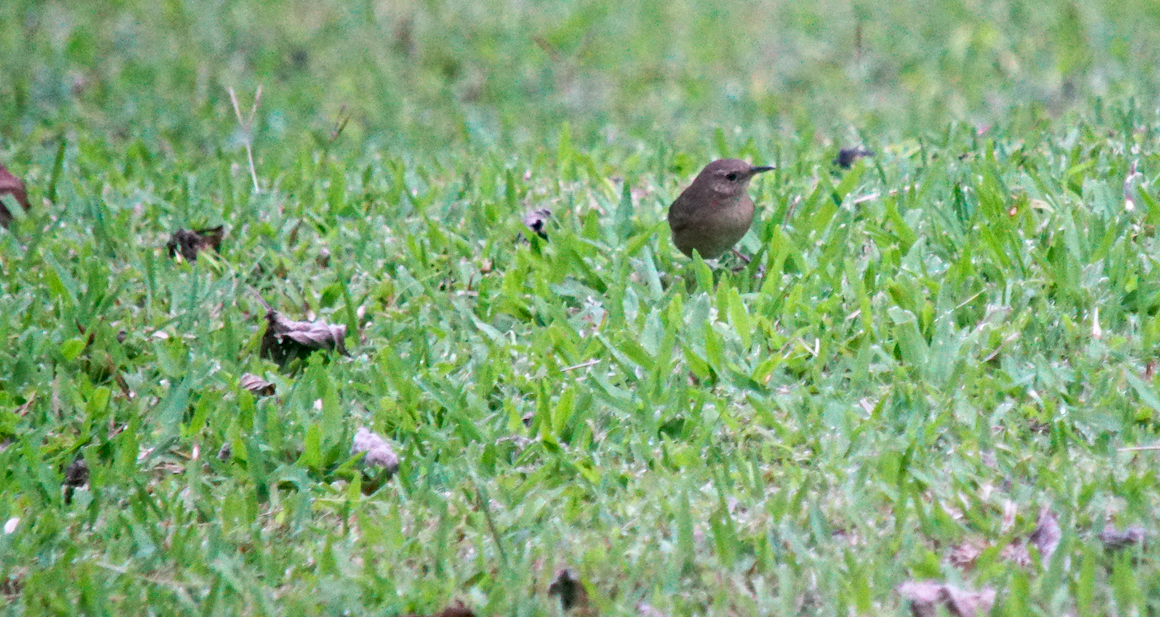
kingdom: Animalia
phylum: Chordata
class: Aves
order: Passeriformes
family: Troglodytidae
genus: Troglodytes
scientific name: Troglodytes aedon
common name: House wren
